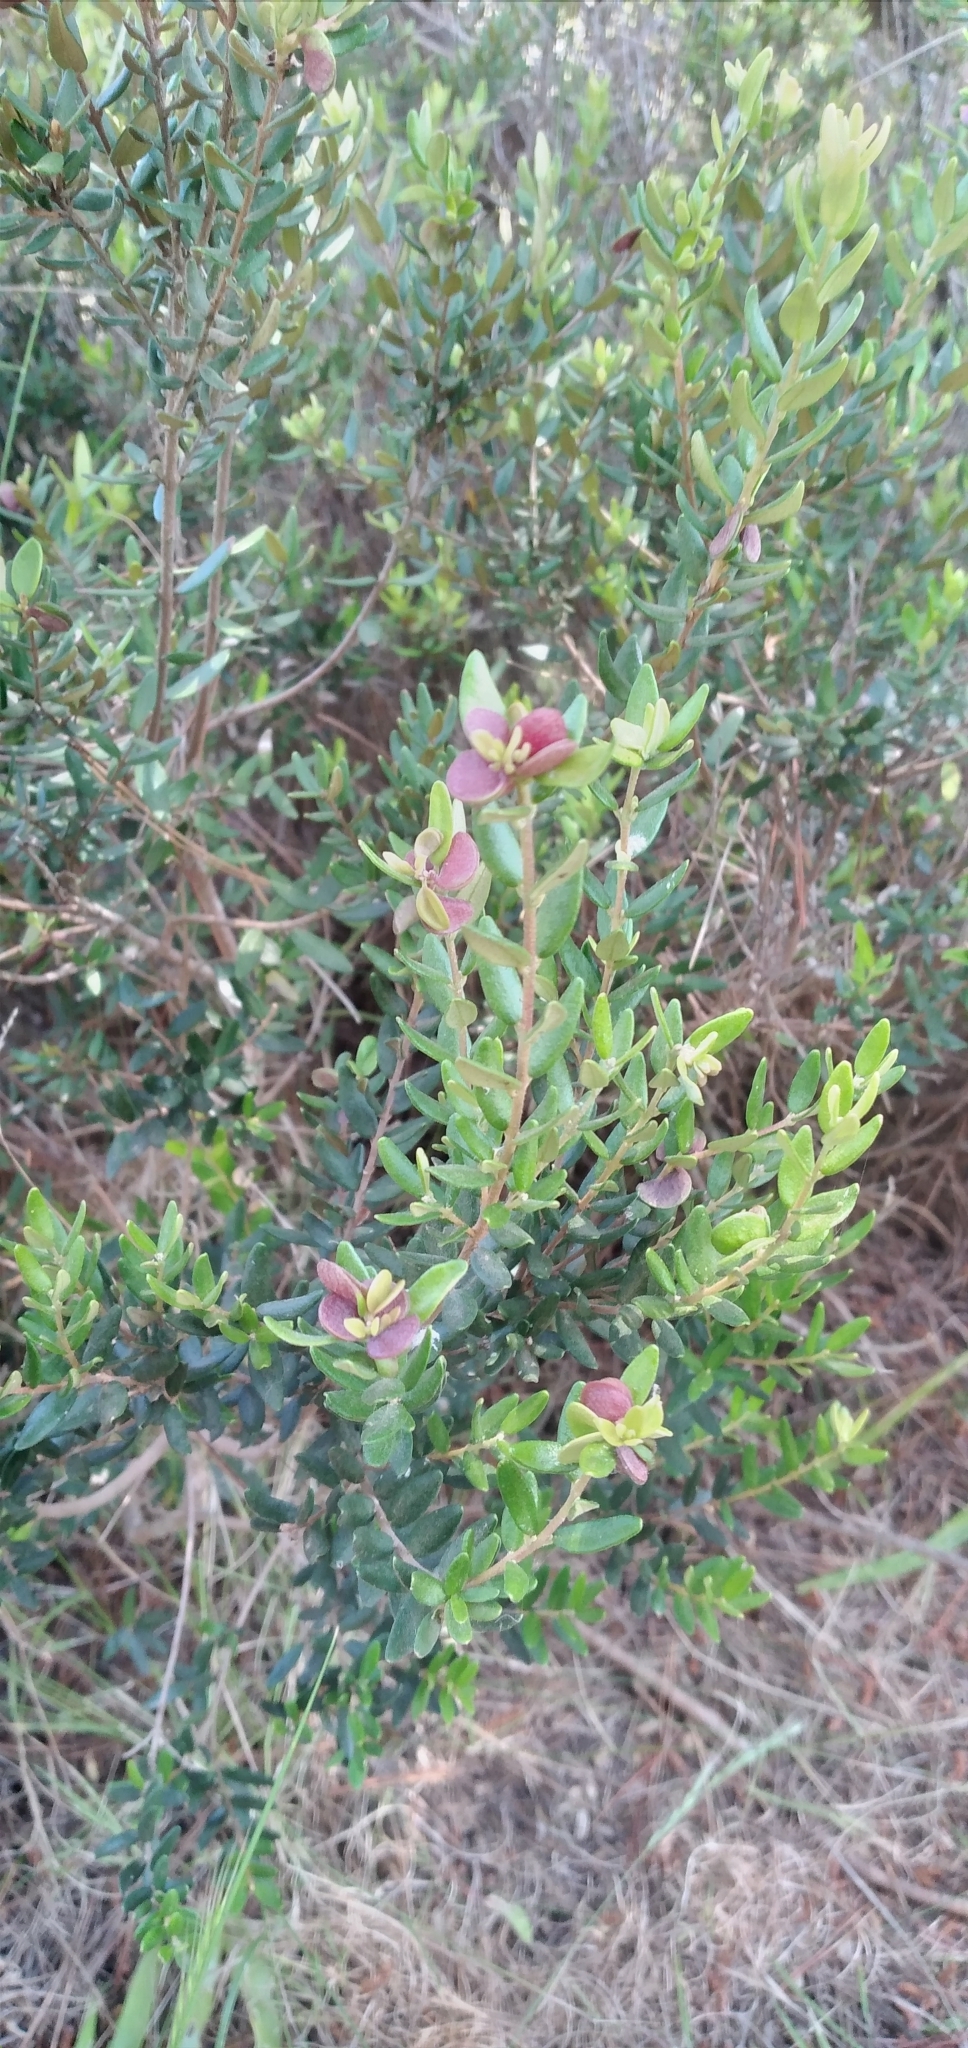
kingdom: Plantae
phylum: Tracheophyta
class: Magnoliopsida
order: Myrtales
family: Myrtaceae
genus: Myrceugenia
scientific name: Myrceugenia rufa
